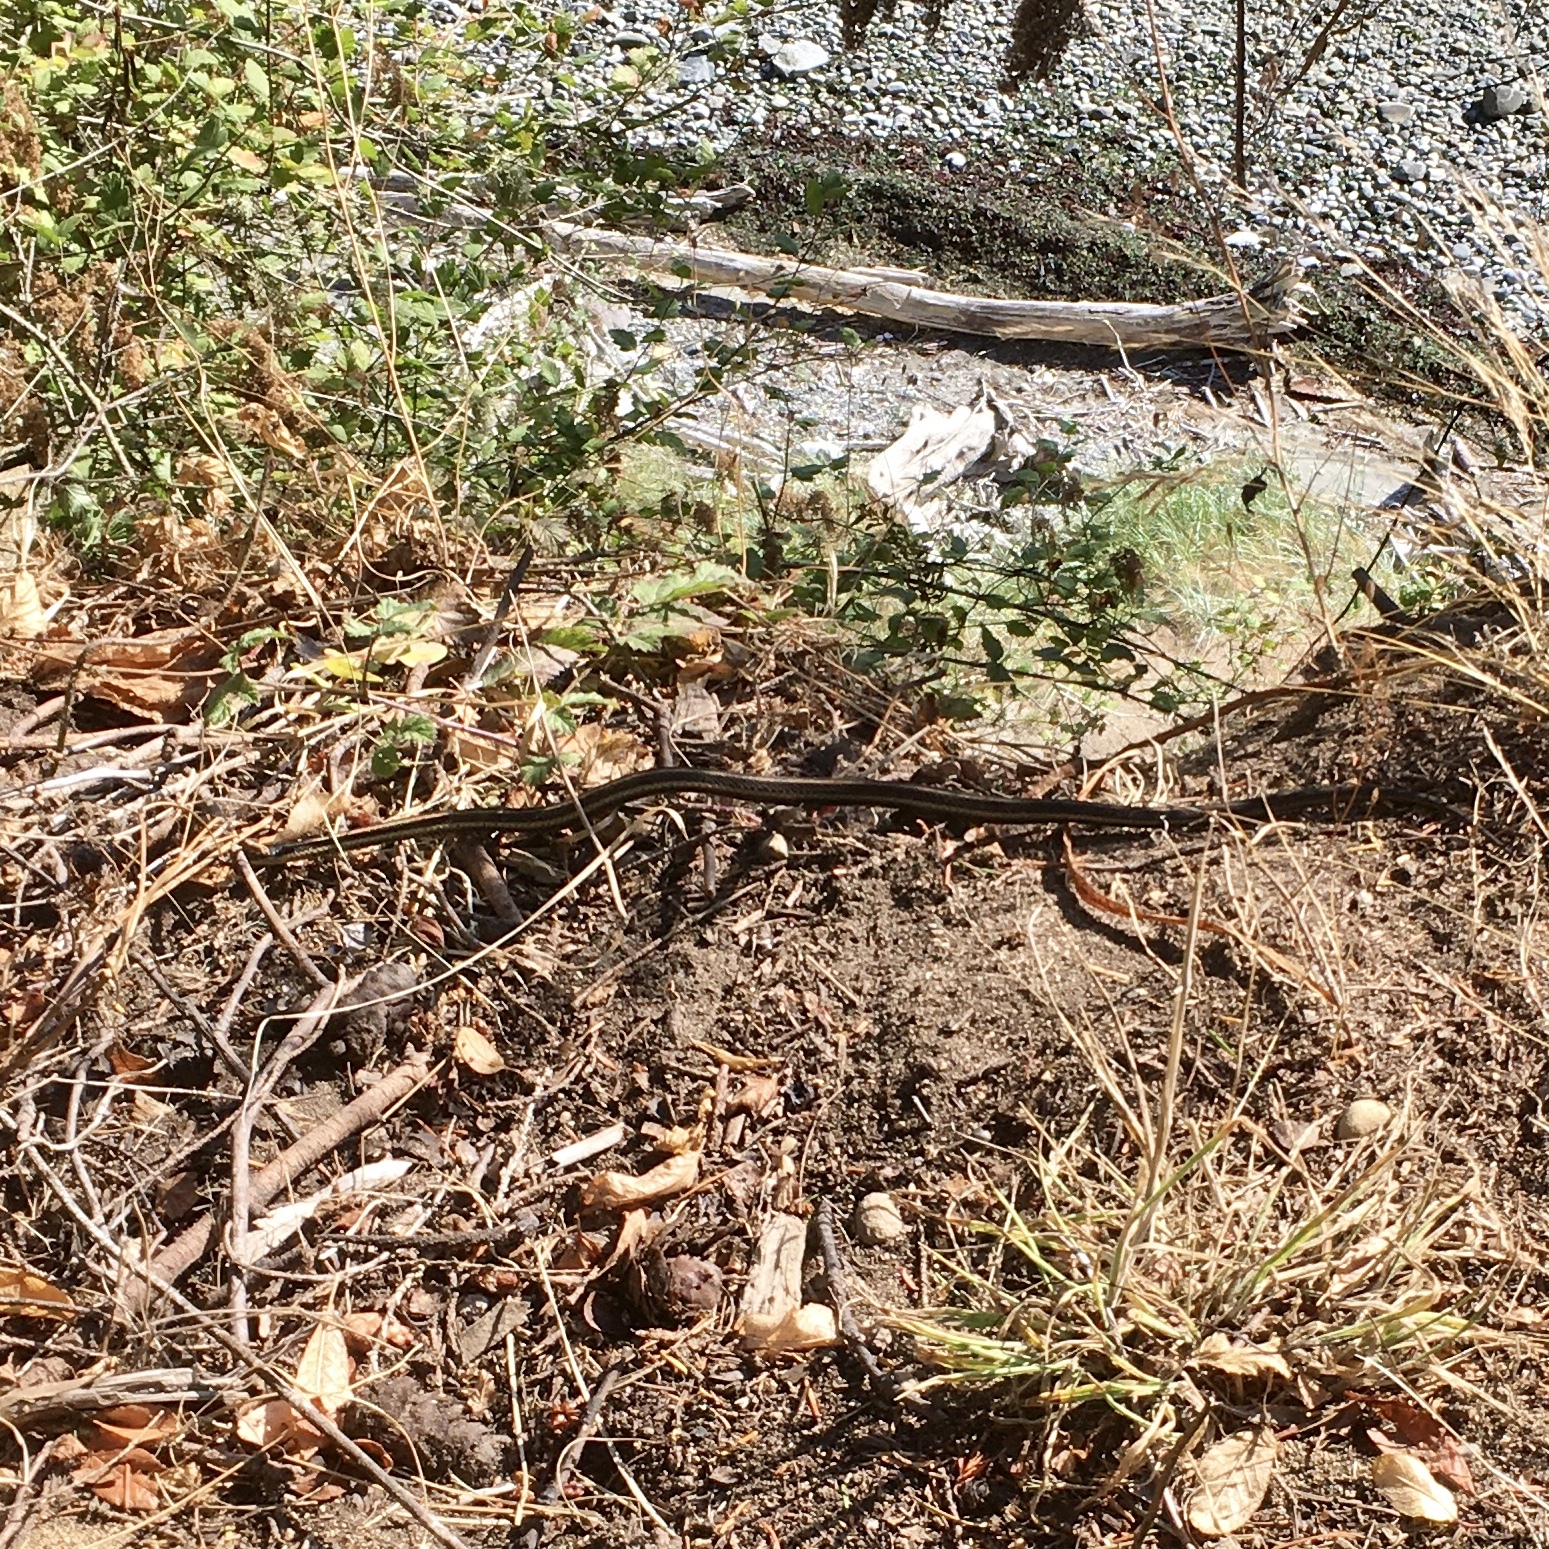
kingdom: Animalia
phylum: Chordata
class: Squamata
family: Colubridae
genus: Thamnophis
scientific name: Thamnophis ordinoides
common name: Northwestern garter snake
